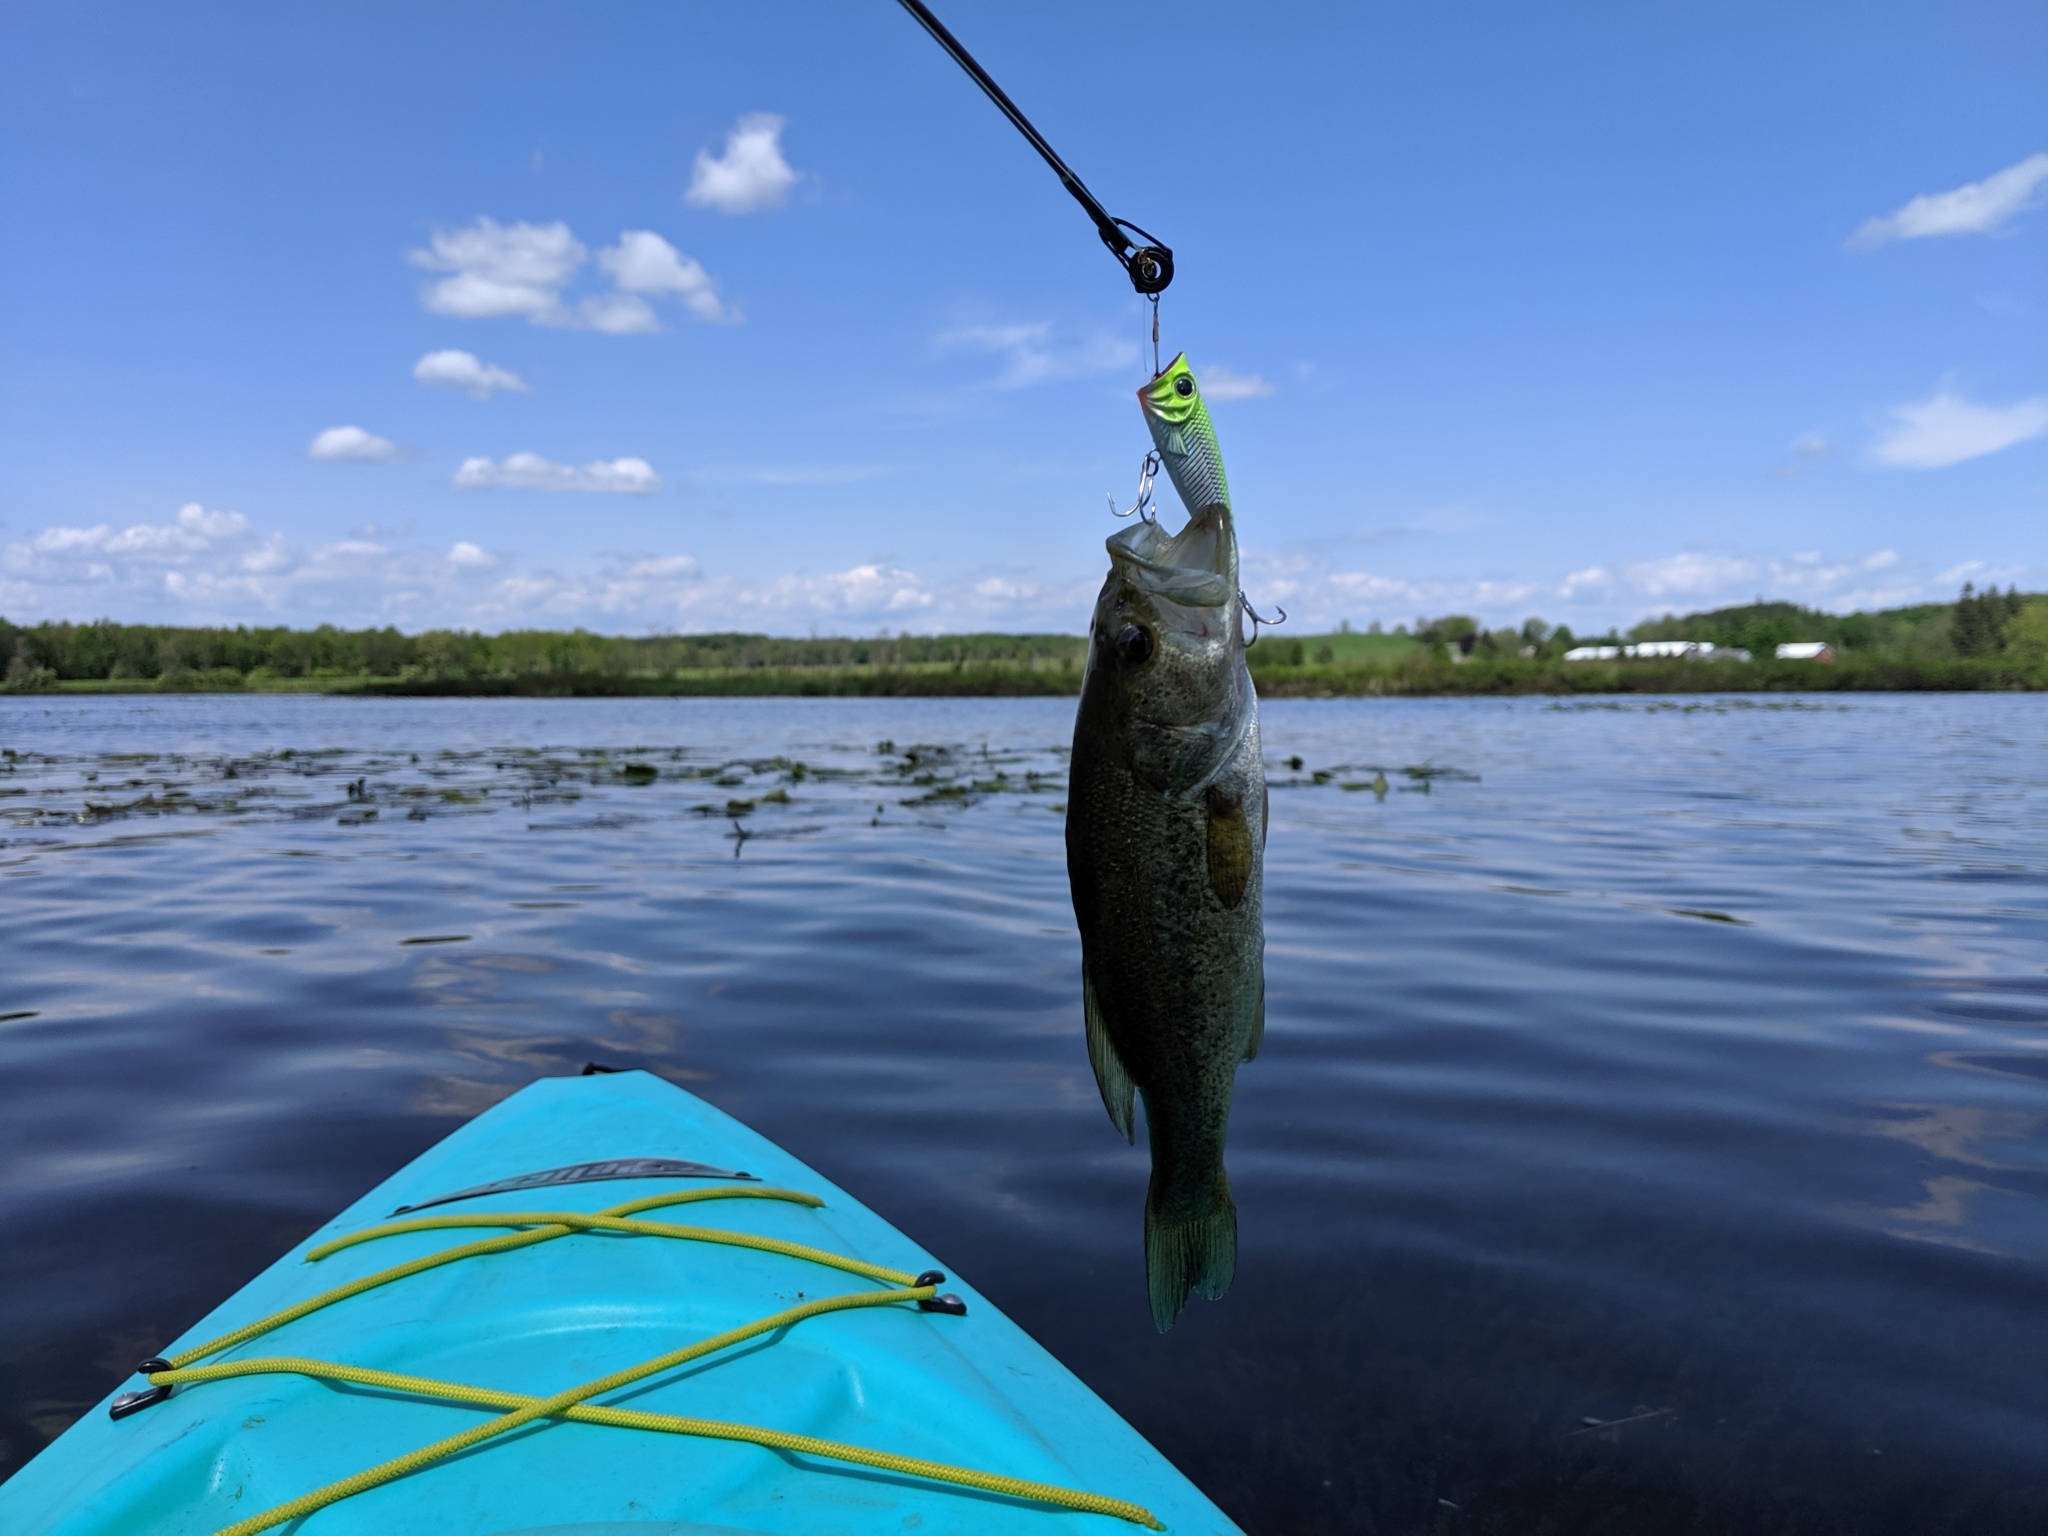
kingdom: Animalia
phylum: Chordata
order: Perciformes
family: Centrarchidae
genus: Micropterus
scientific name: Micropterus
